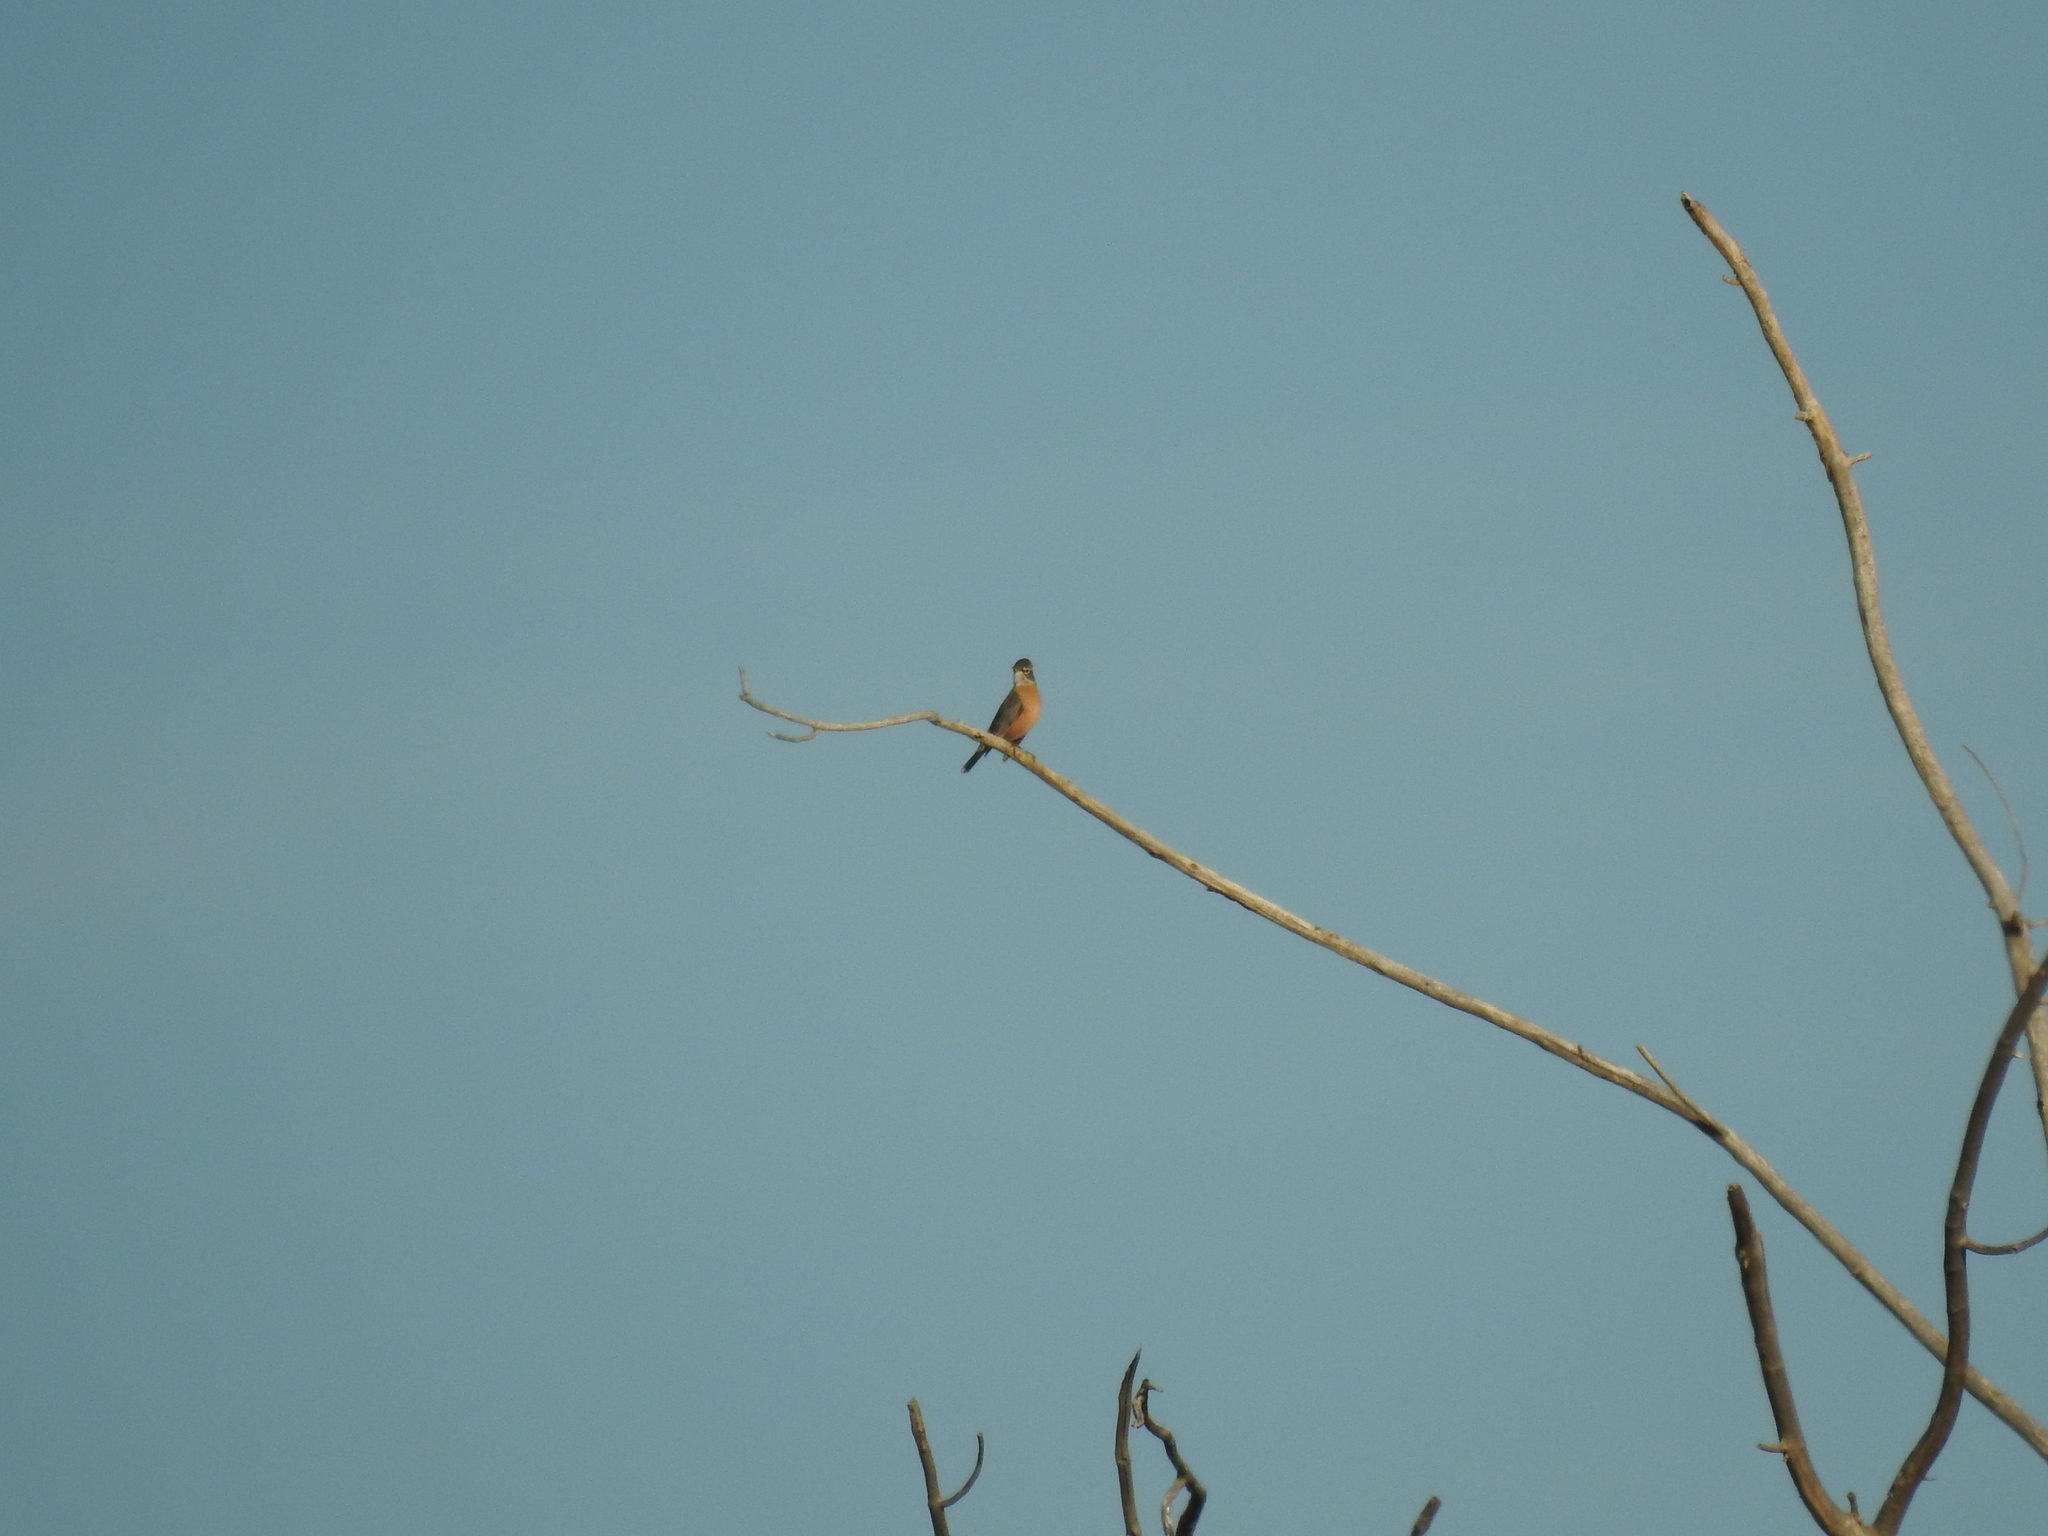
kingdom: Animalia
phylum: Chordata
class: Aves
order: Passeriformes
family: Turdidae
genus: Turdus
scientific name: Turdus migratorius
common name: American robin
